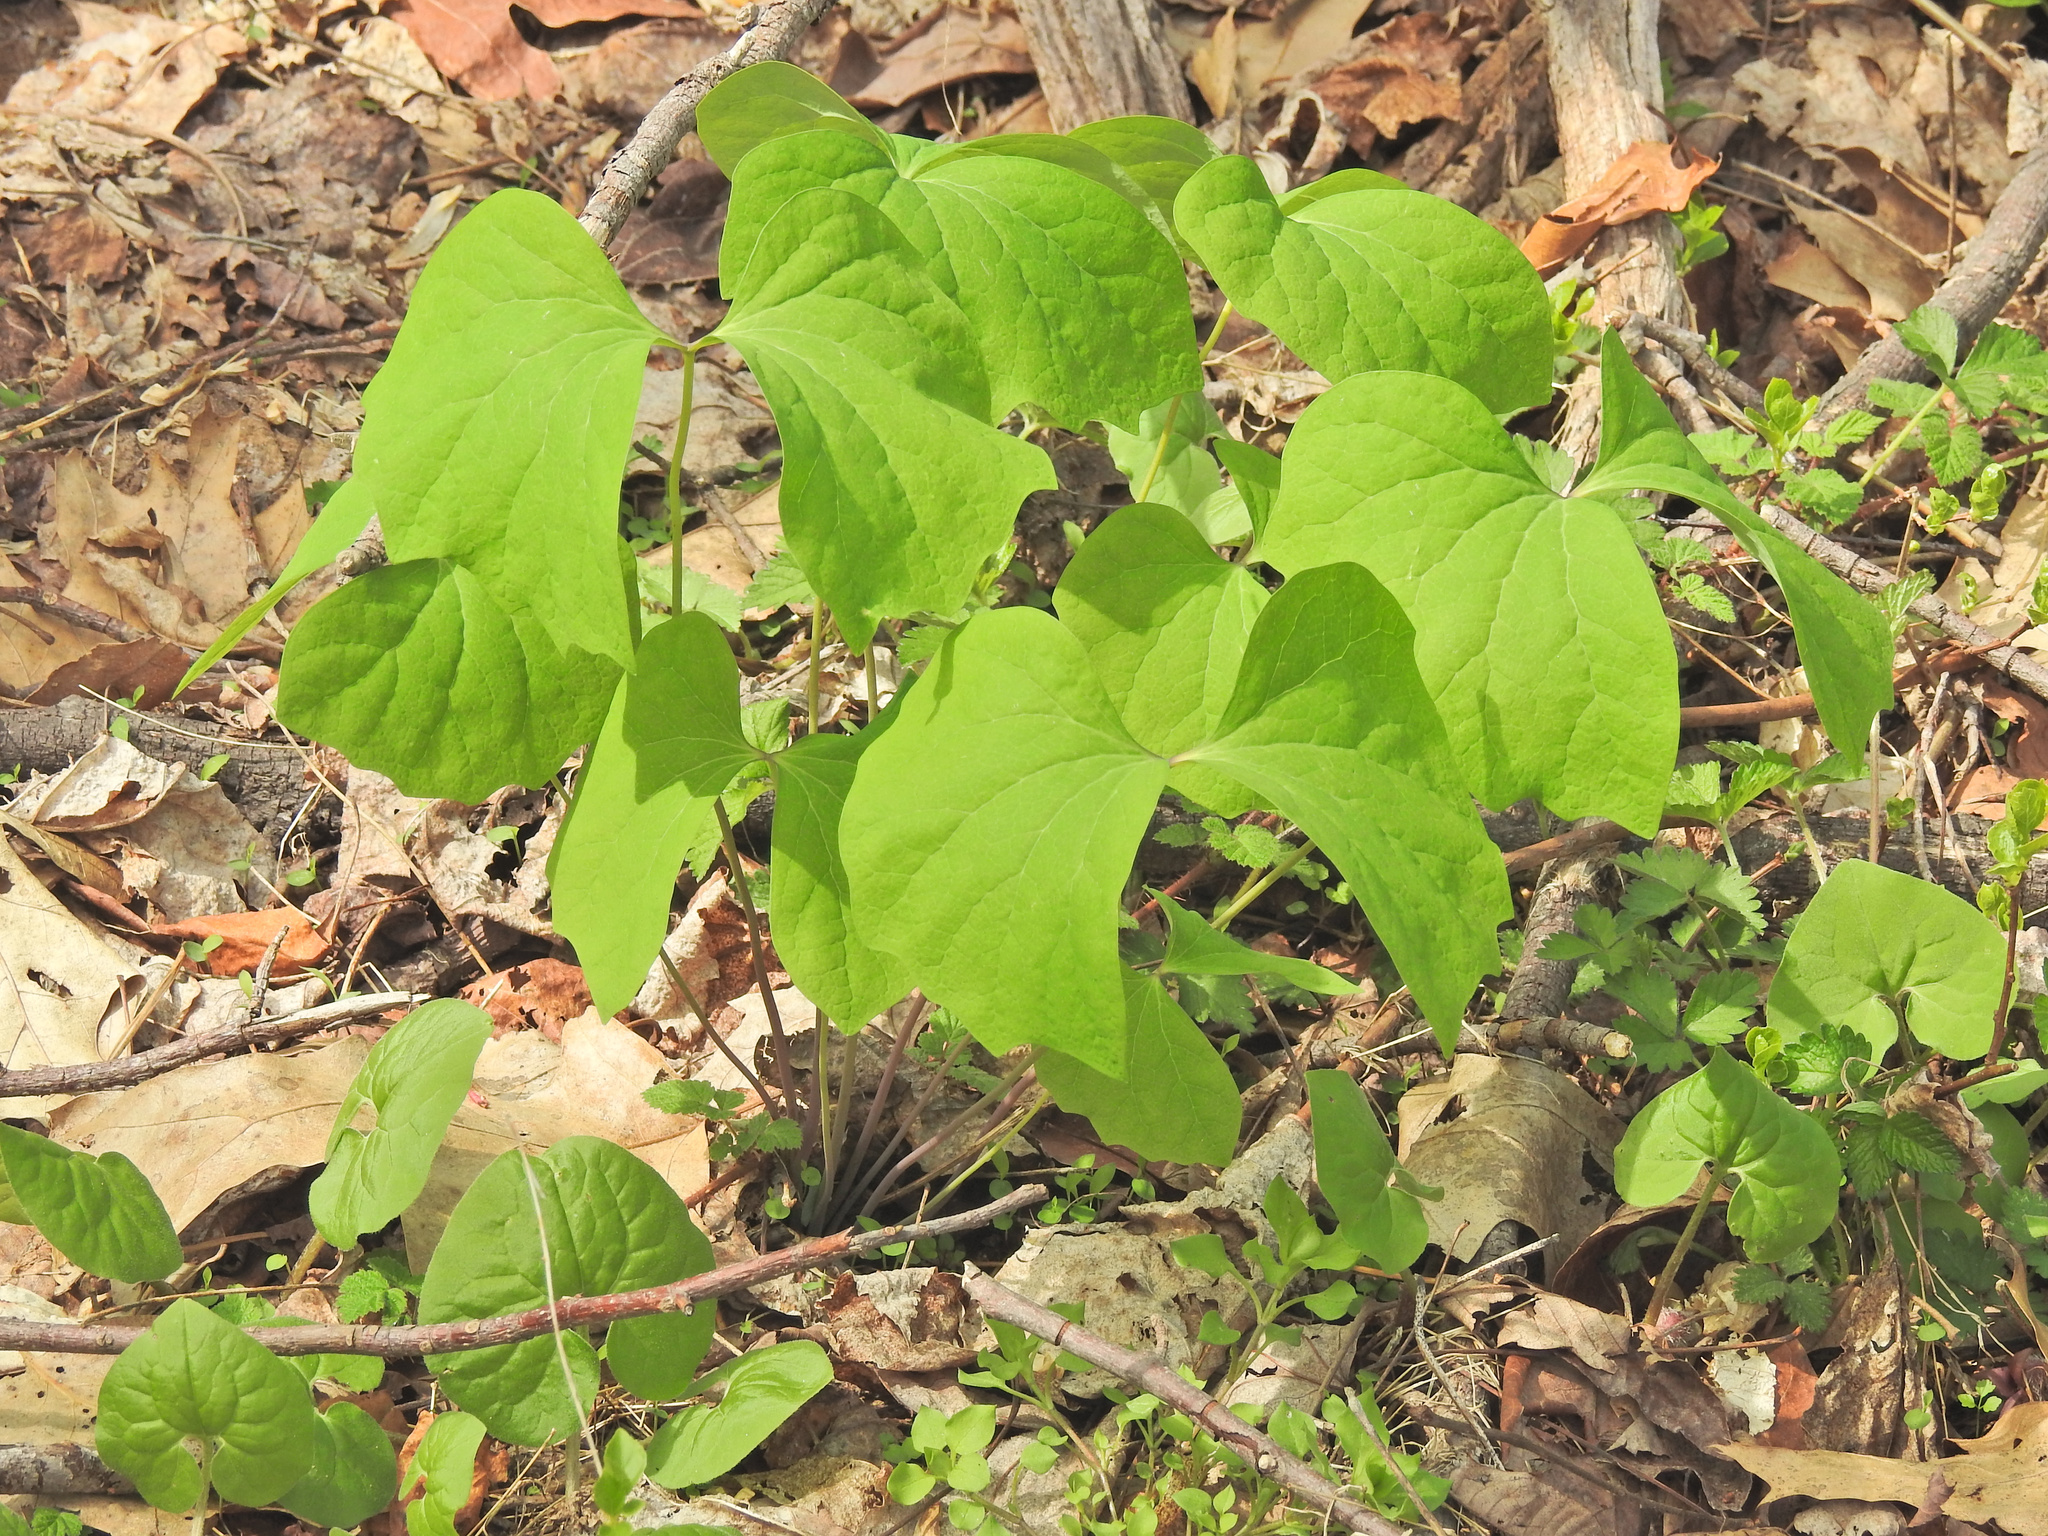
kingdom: Plantae
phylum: Tracheophyta
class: Magnoliopsida
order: Ranunculales
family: Berberidaceae
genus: Jeffersonia
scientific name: Jeffersonia diphylla
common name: Rheumatism-root
